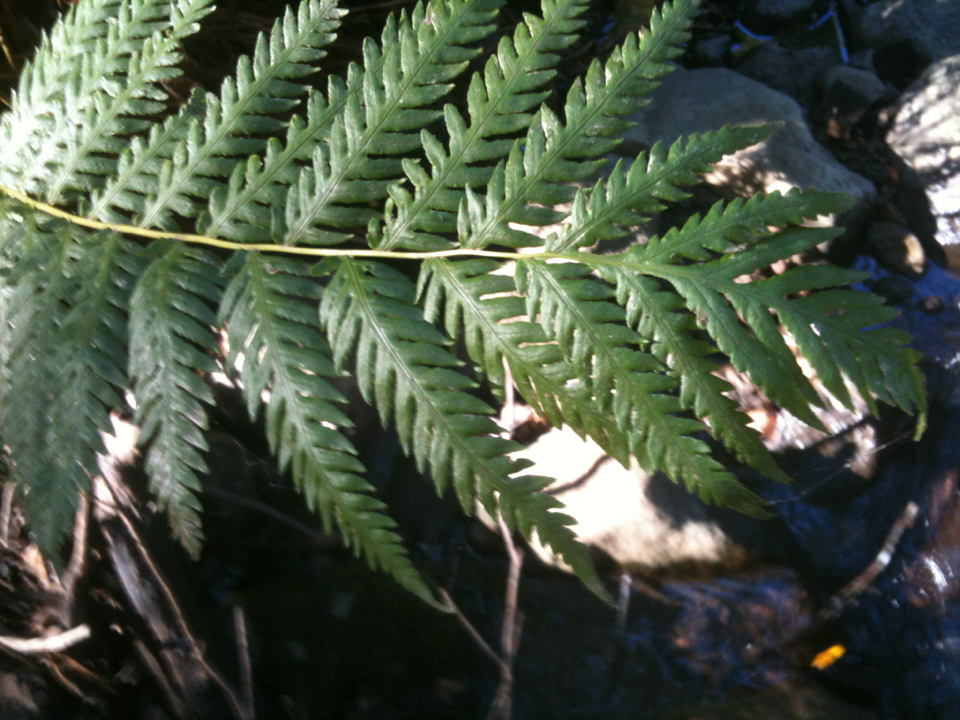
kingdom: Plantae
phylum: Tracheophyta
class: Polypodiopsida
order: Polypodiales
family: Blechnaceae
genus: Woodwardia
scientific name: Woodwardia fimbriata
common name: Giant chain fern
